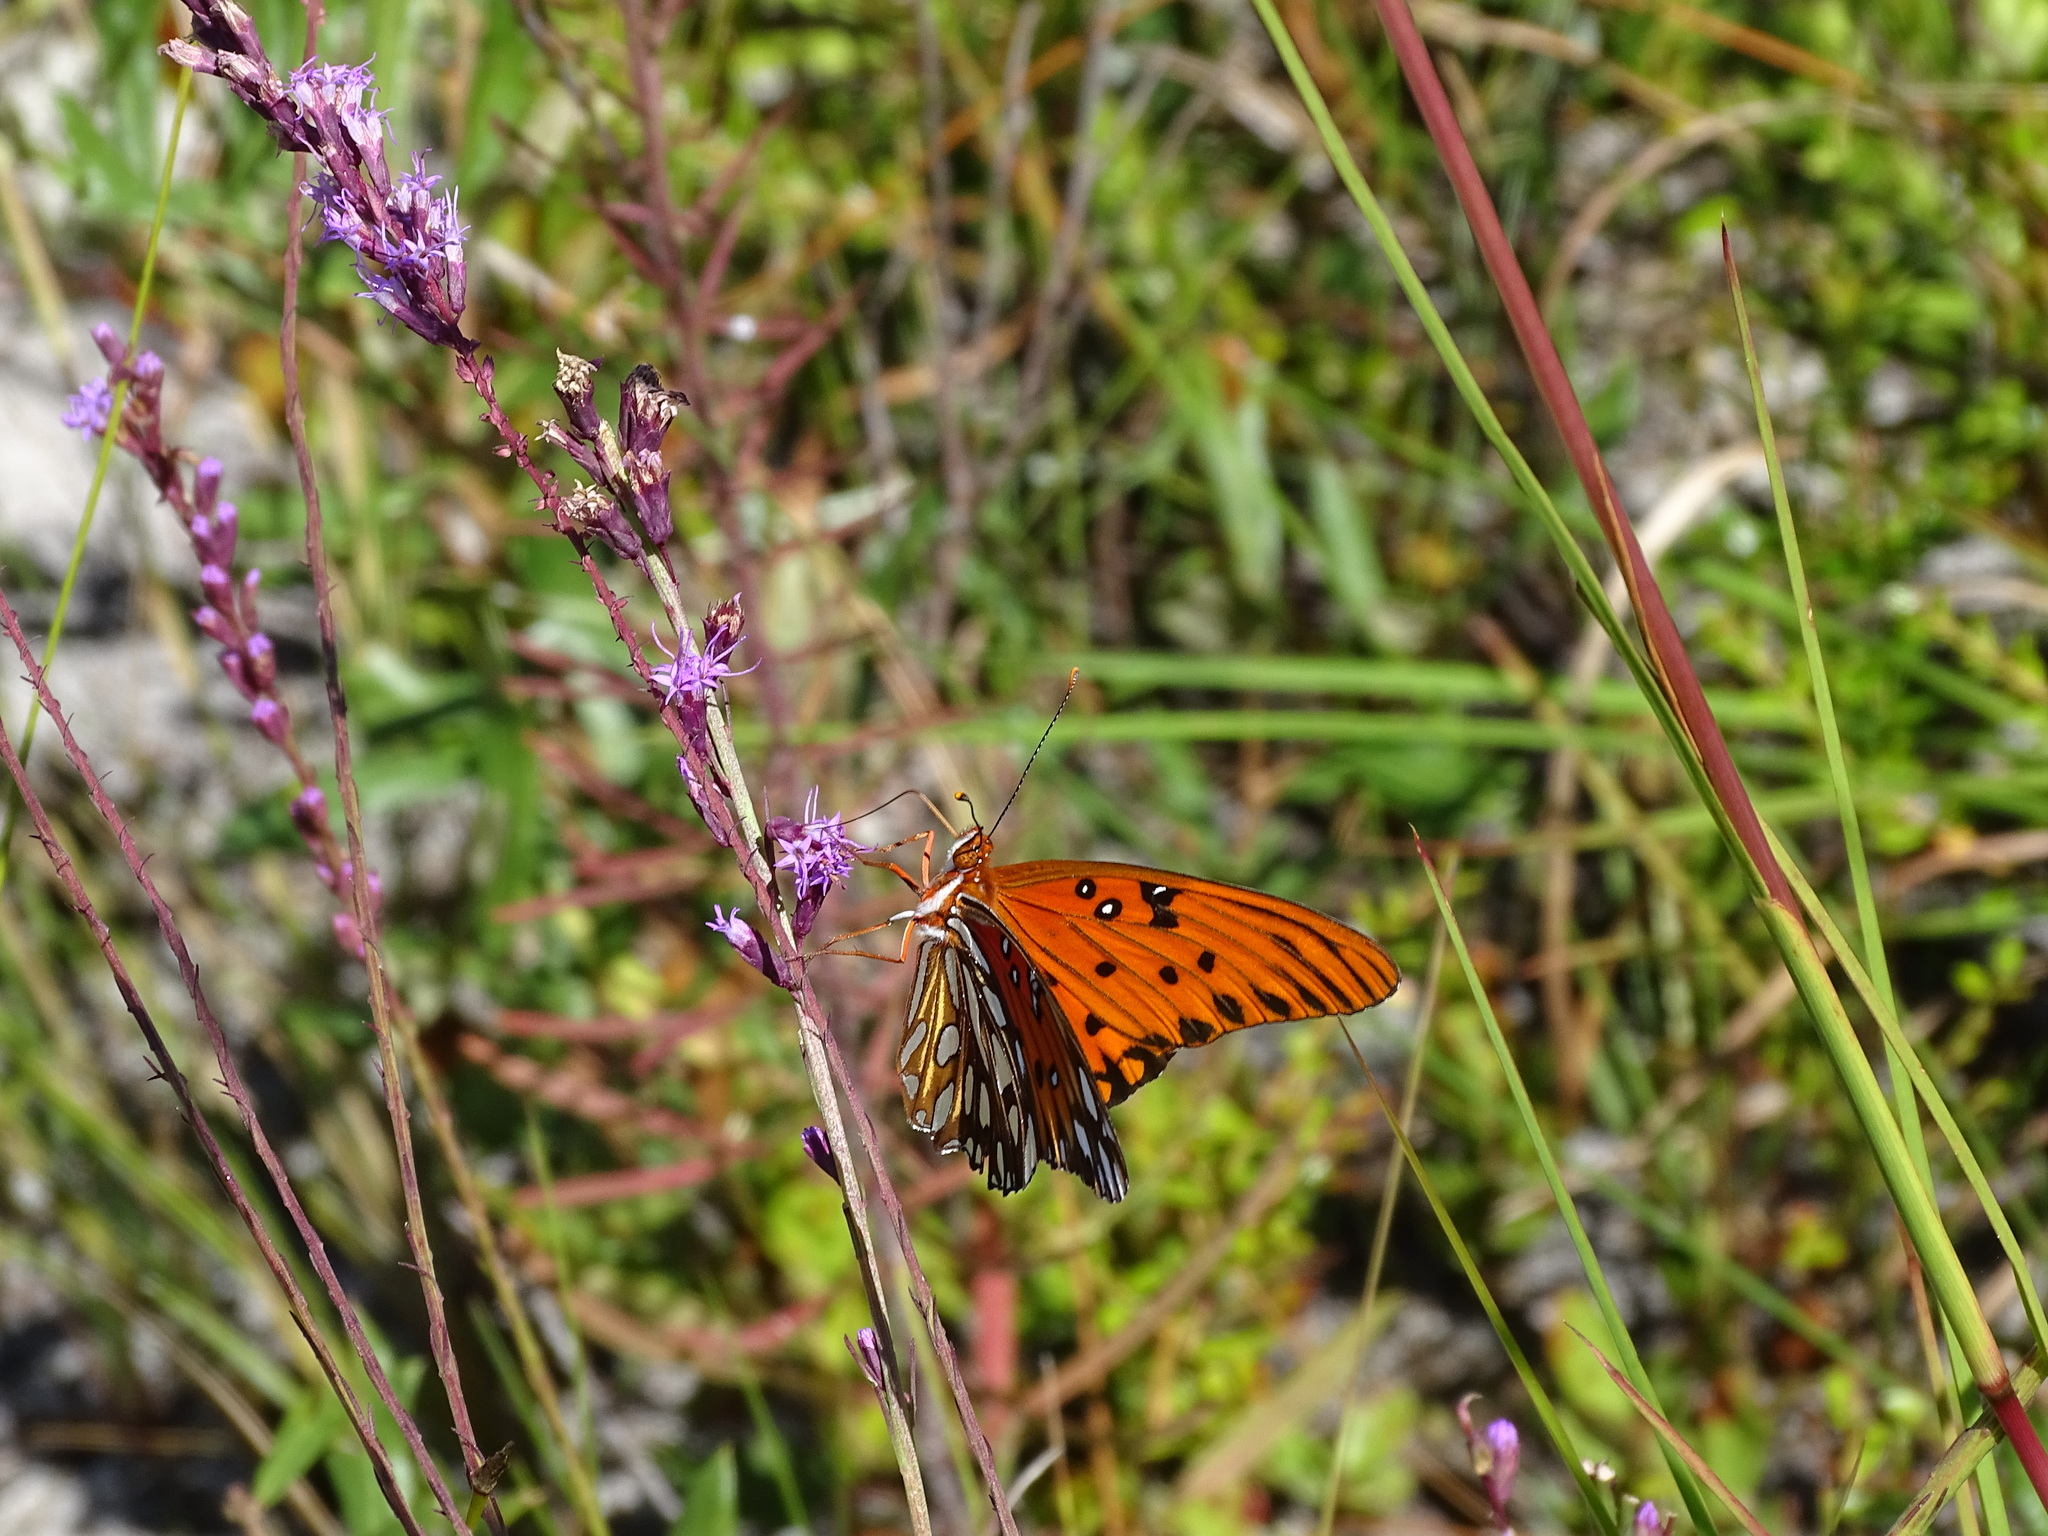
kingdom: Animalia
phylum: Arthropoda
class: Insecta
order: Lepidoptera
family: Nymphalidae
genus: Dione
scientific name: Dione vanillae
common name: Gulf fritillary
